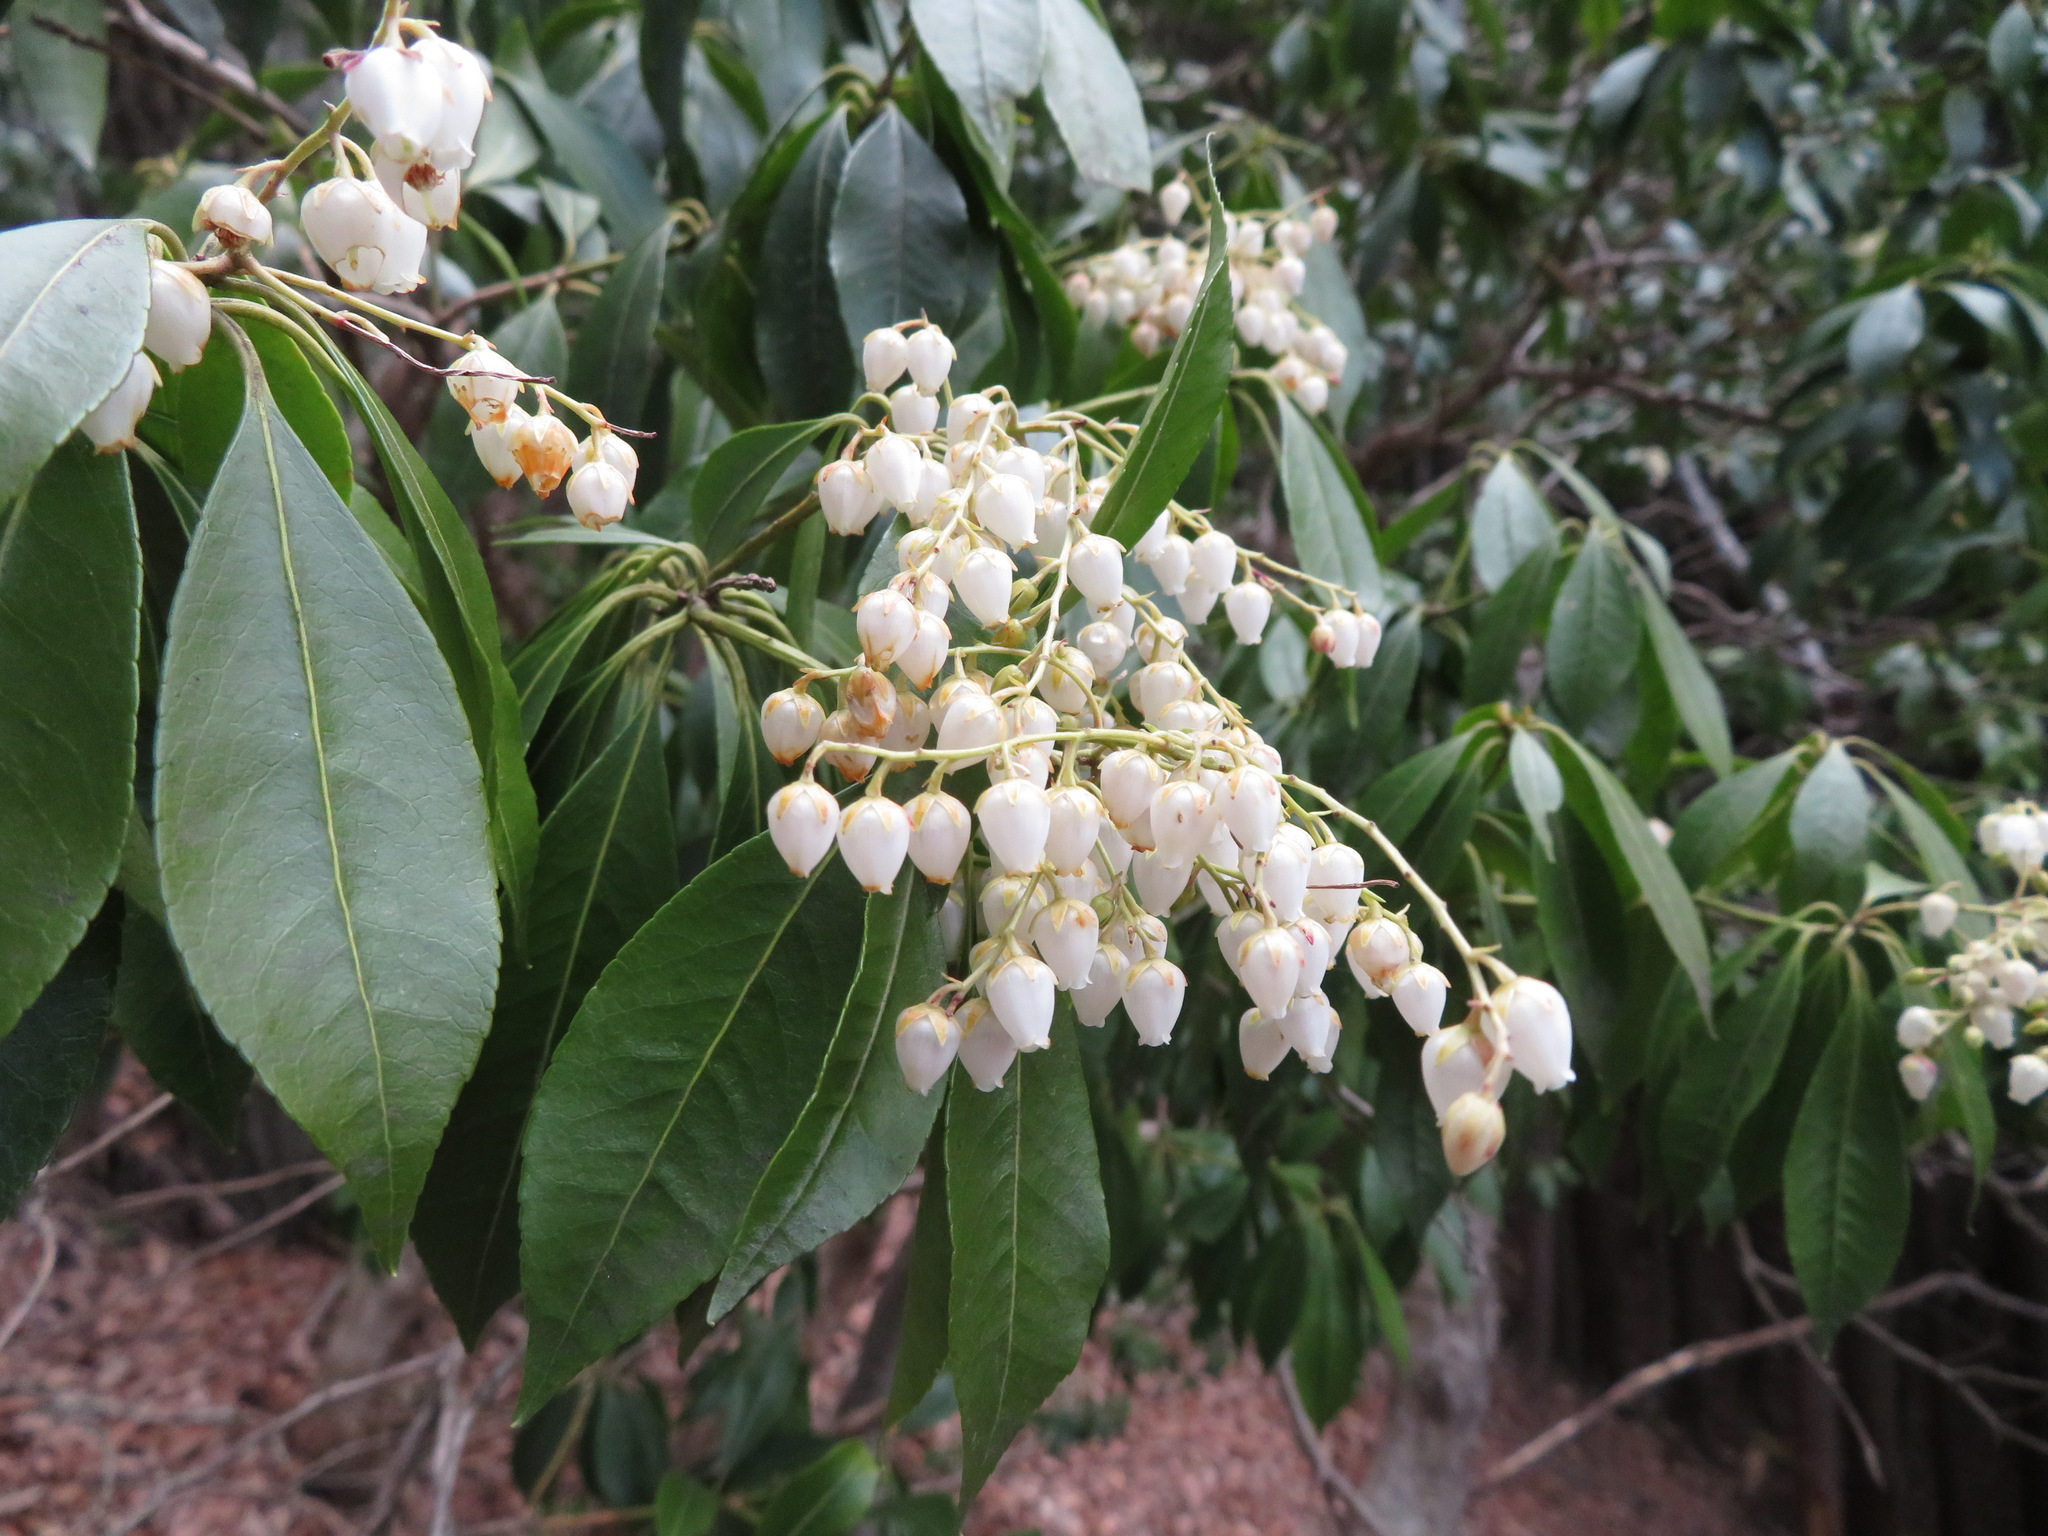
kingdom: Plantae
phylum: Tracheophyta
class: Magnoliopsida
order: Ericales
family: Ericaceae
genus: Pieris
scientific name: Pieris japonica
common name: Japanese pieris
